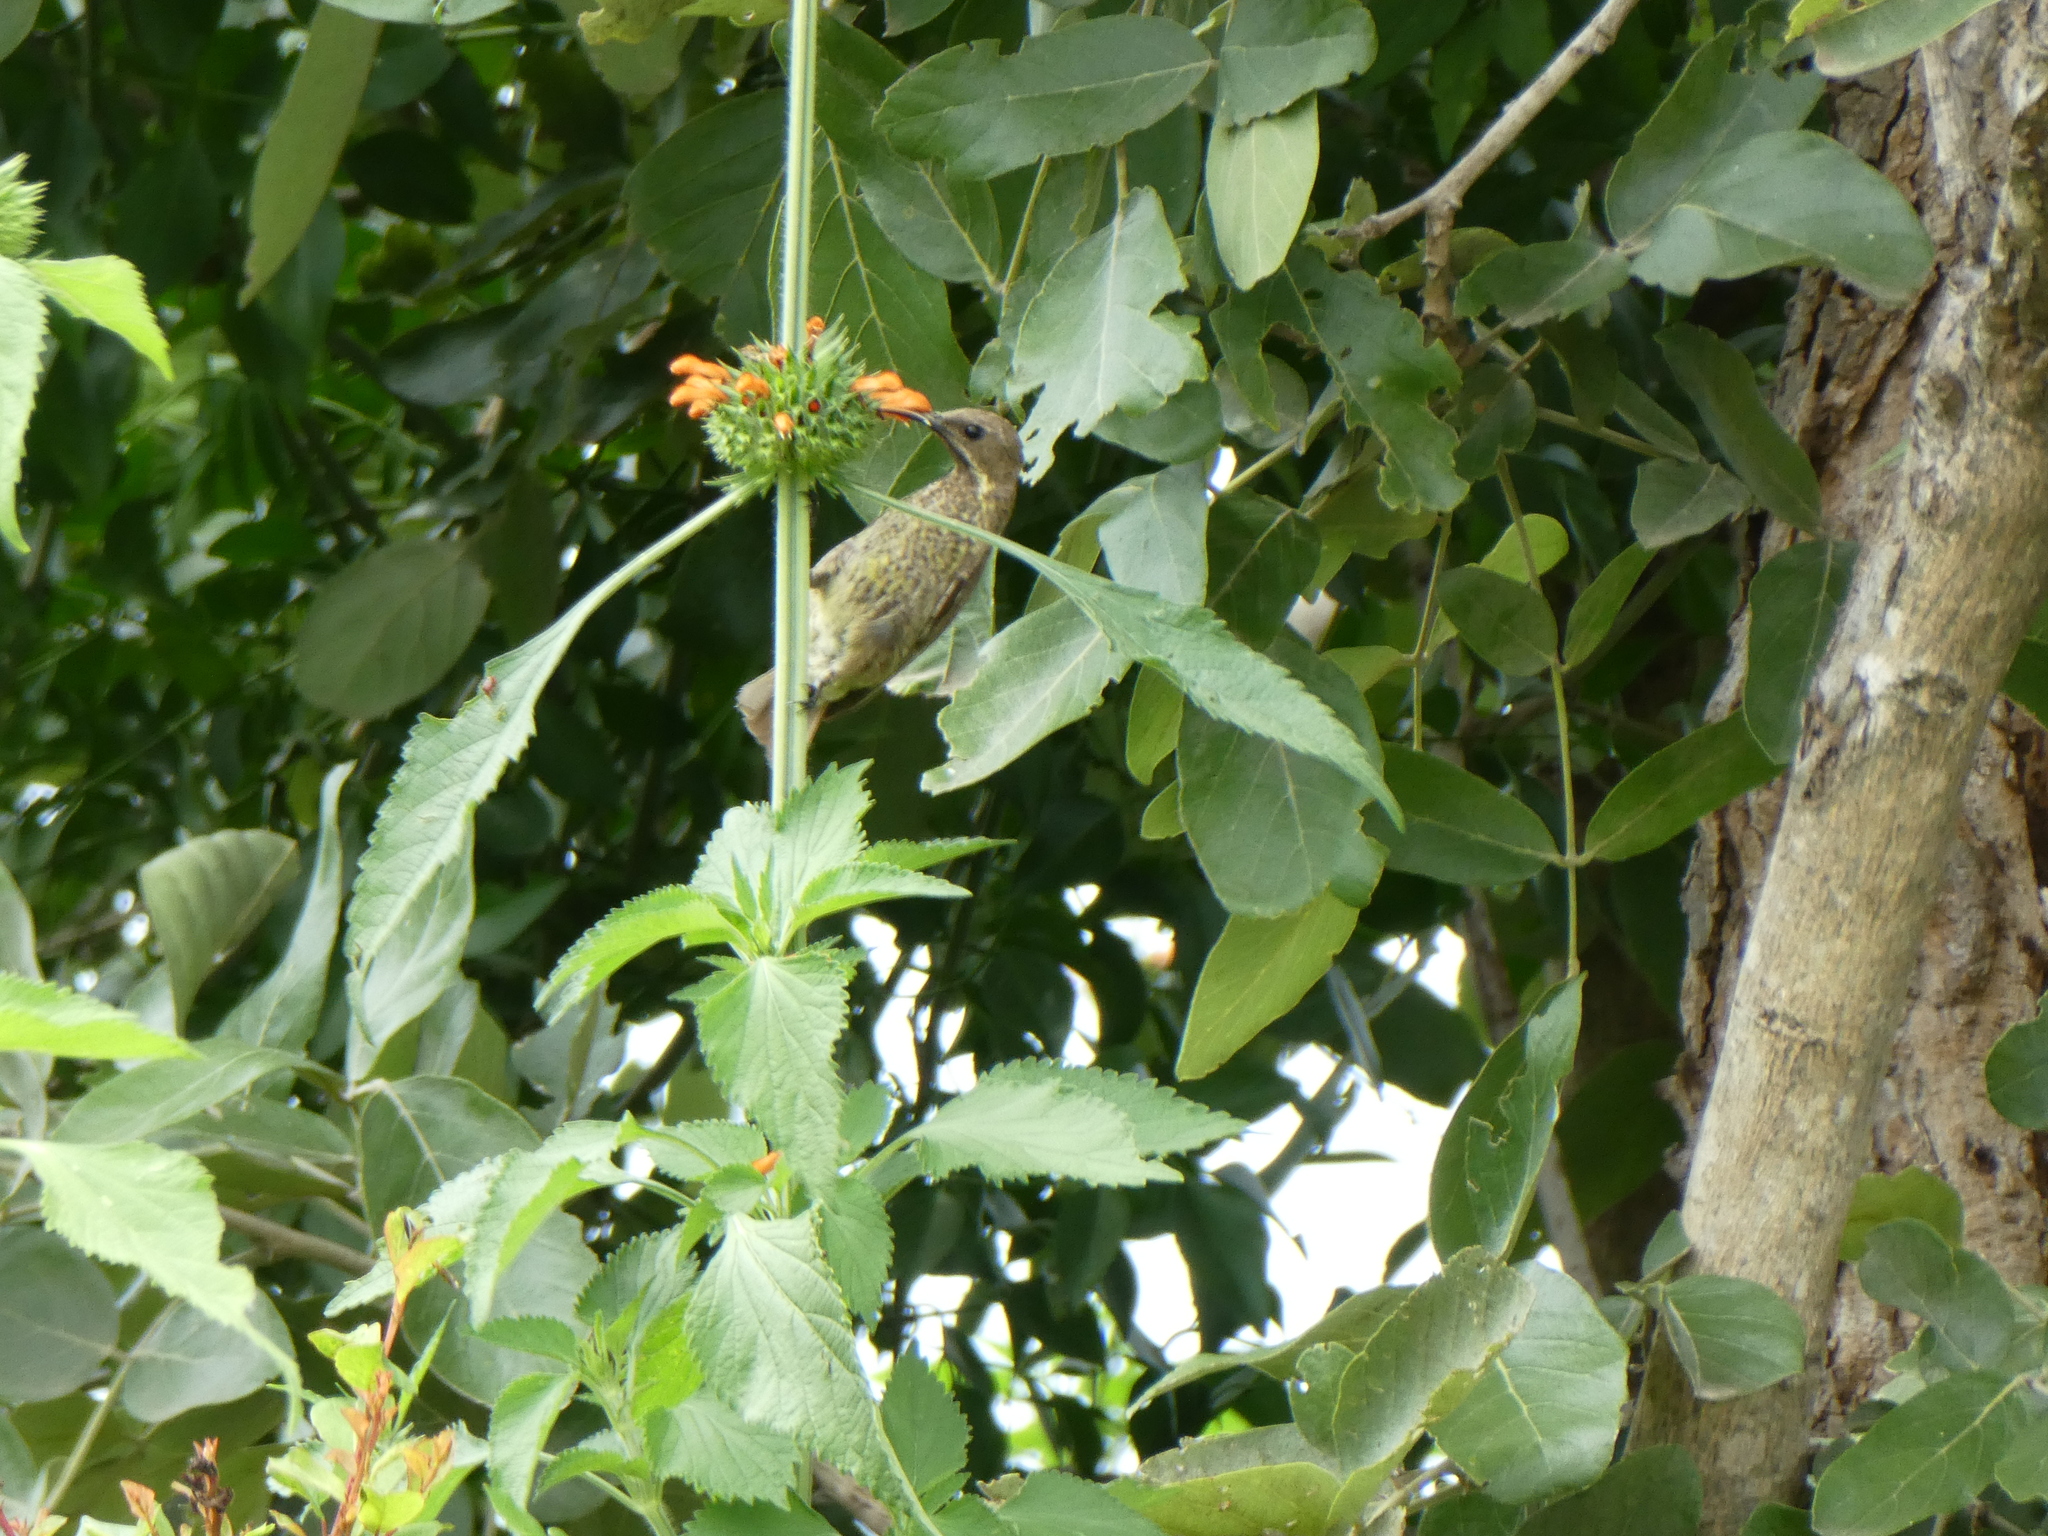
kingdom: Animalia
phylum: Chordata
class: Aves
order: Passeriformes
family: Nectariniidae
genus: Chalcomitra
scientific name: Chalcomitra amethystina
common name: Amethyst sunbird
